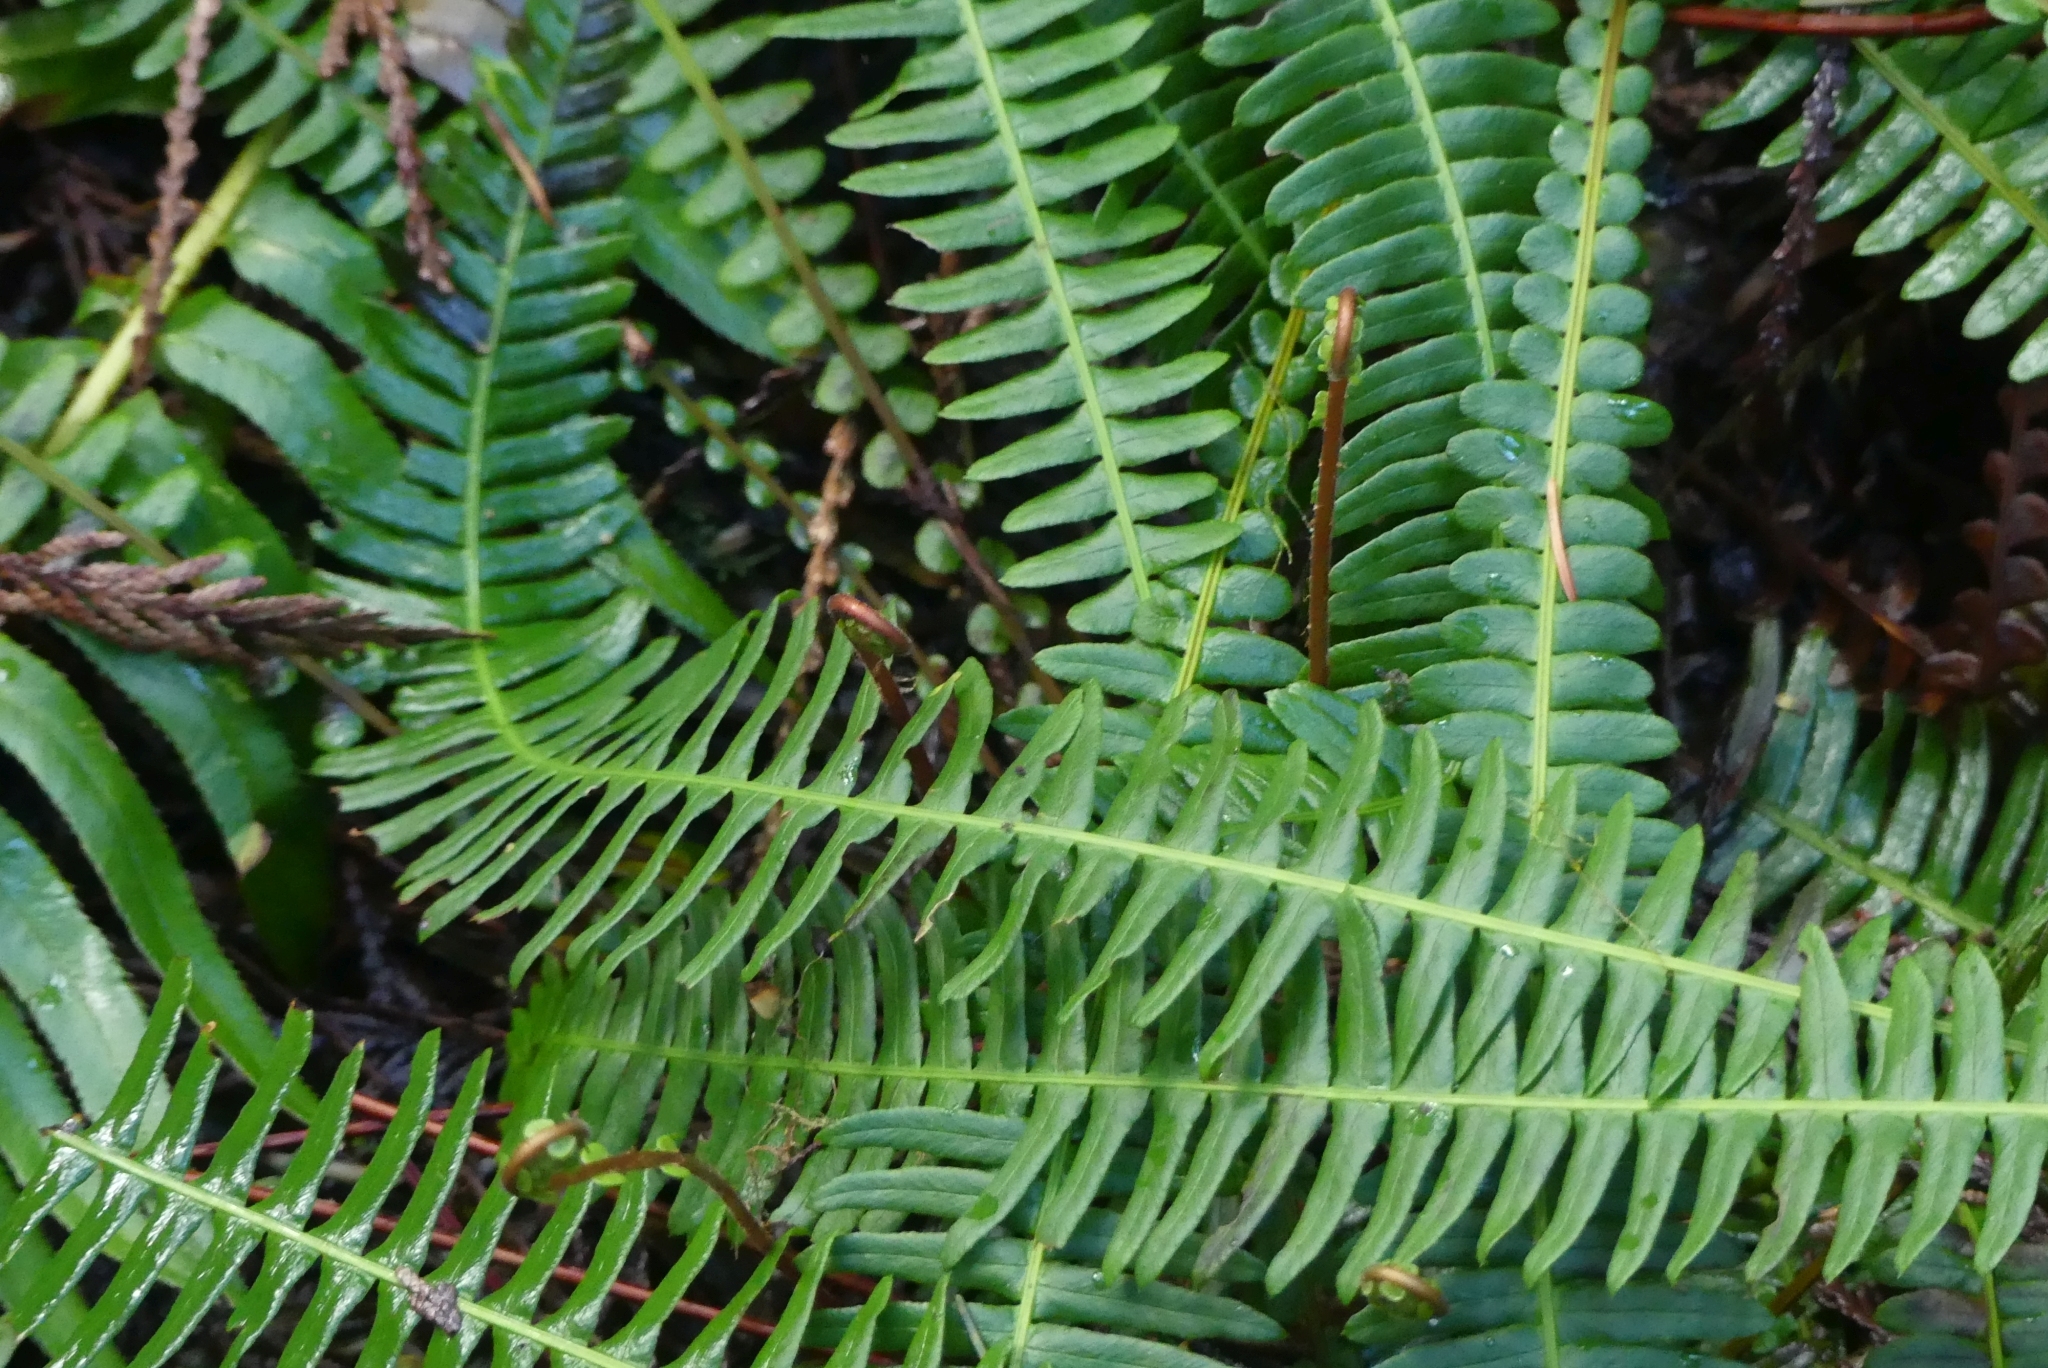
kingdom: Plantae
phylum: Tracheophyta
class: Polypodiopsida
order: Polypodiales
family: Blechnaceae
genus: Struthiopteris
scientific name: Struthiopteris spicant
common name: Deer fern
